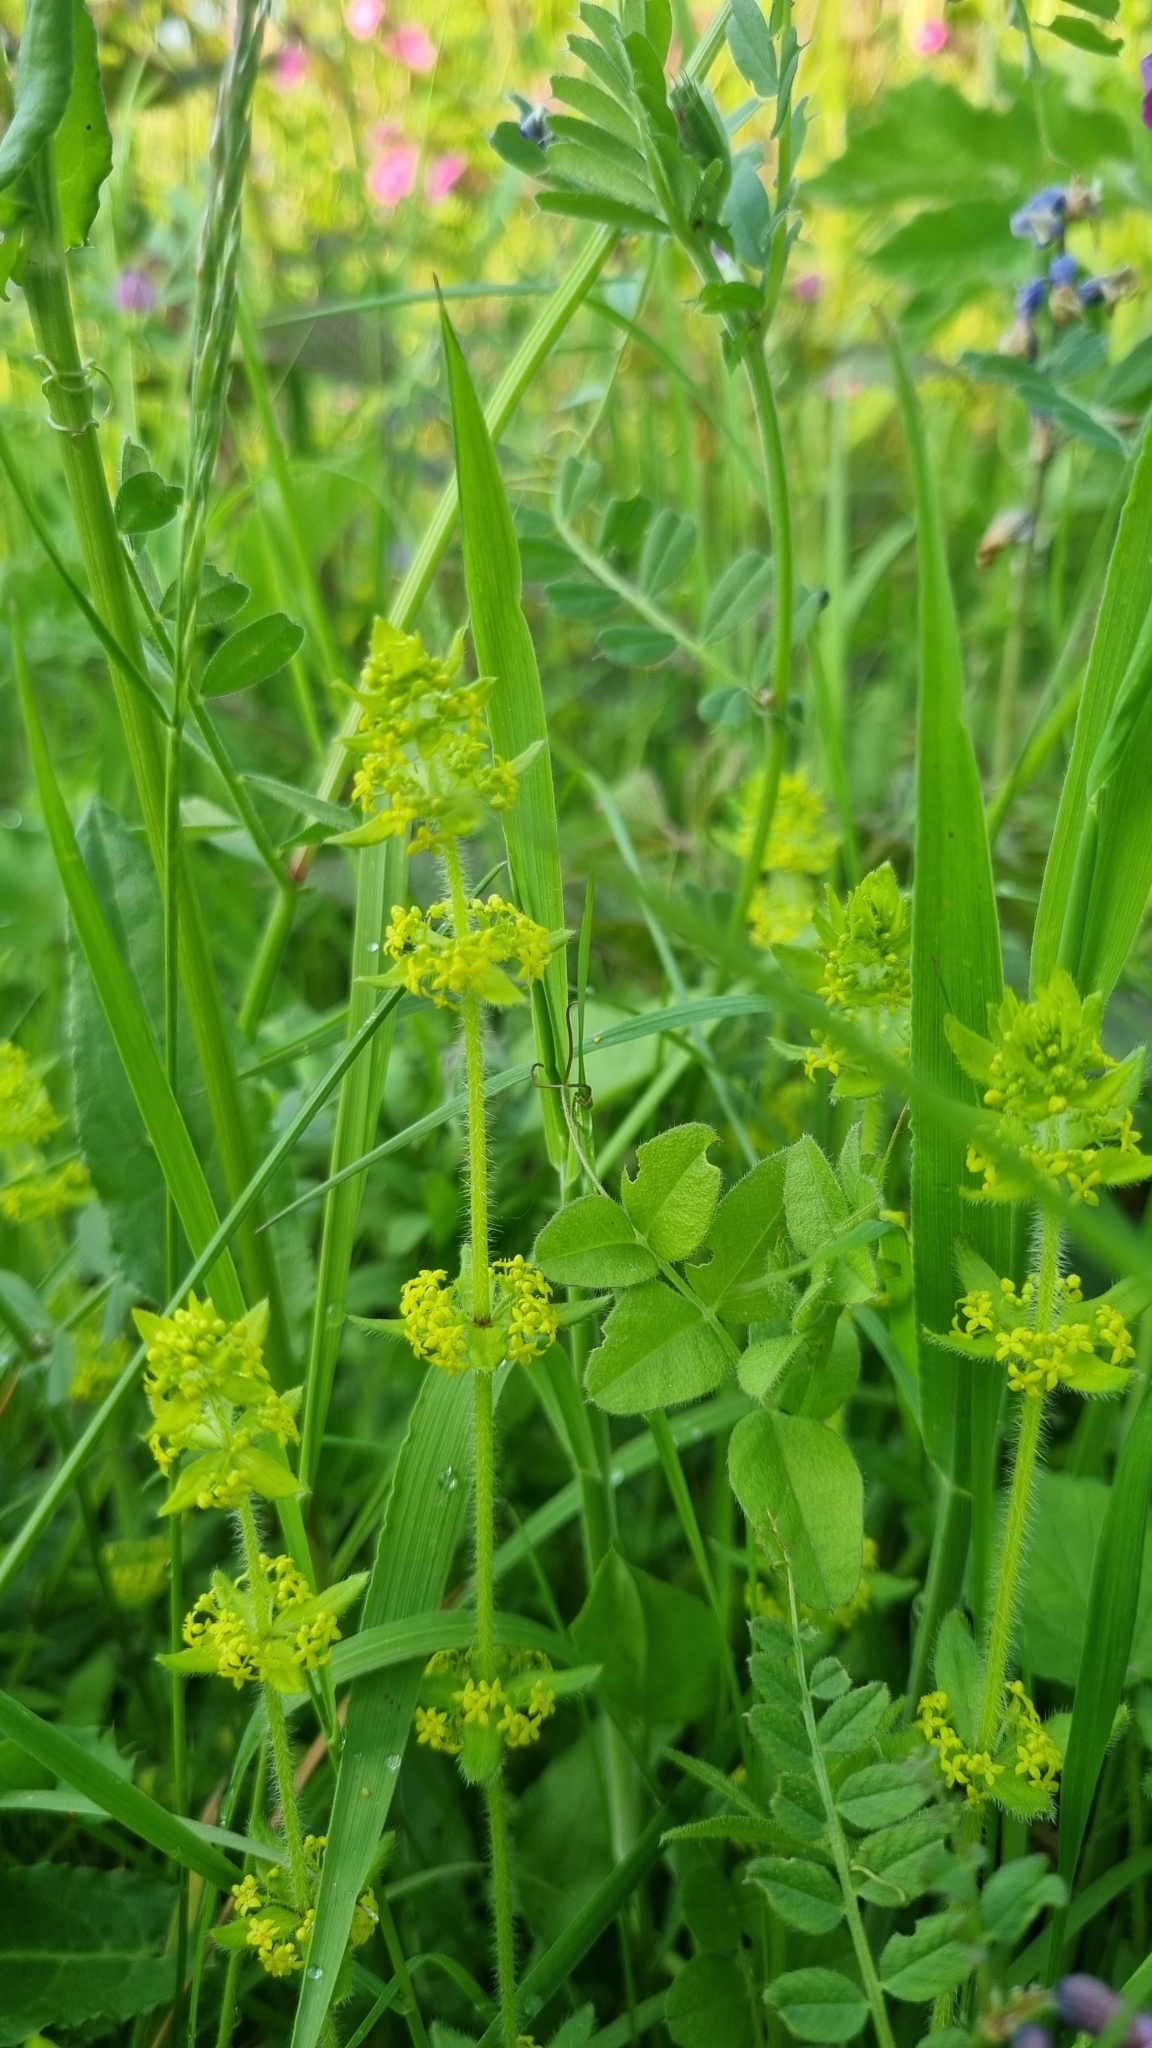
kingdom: Plantae
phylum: Tracheophyta
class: Magnoliopsida
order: Gentianales
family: Rubiaceae
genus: Cruciata
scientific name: Cruciata laevipes
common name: Crosswort
